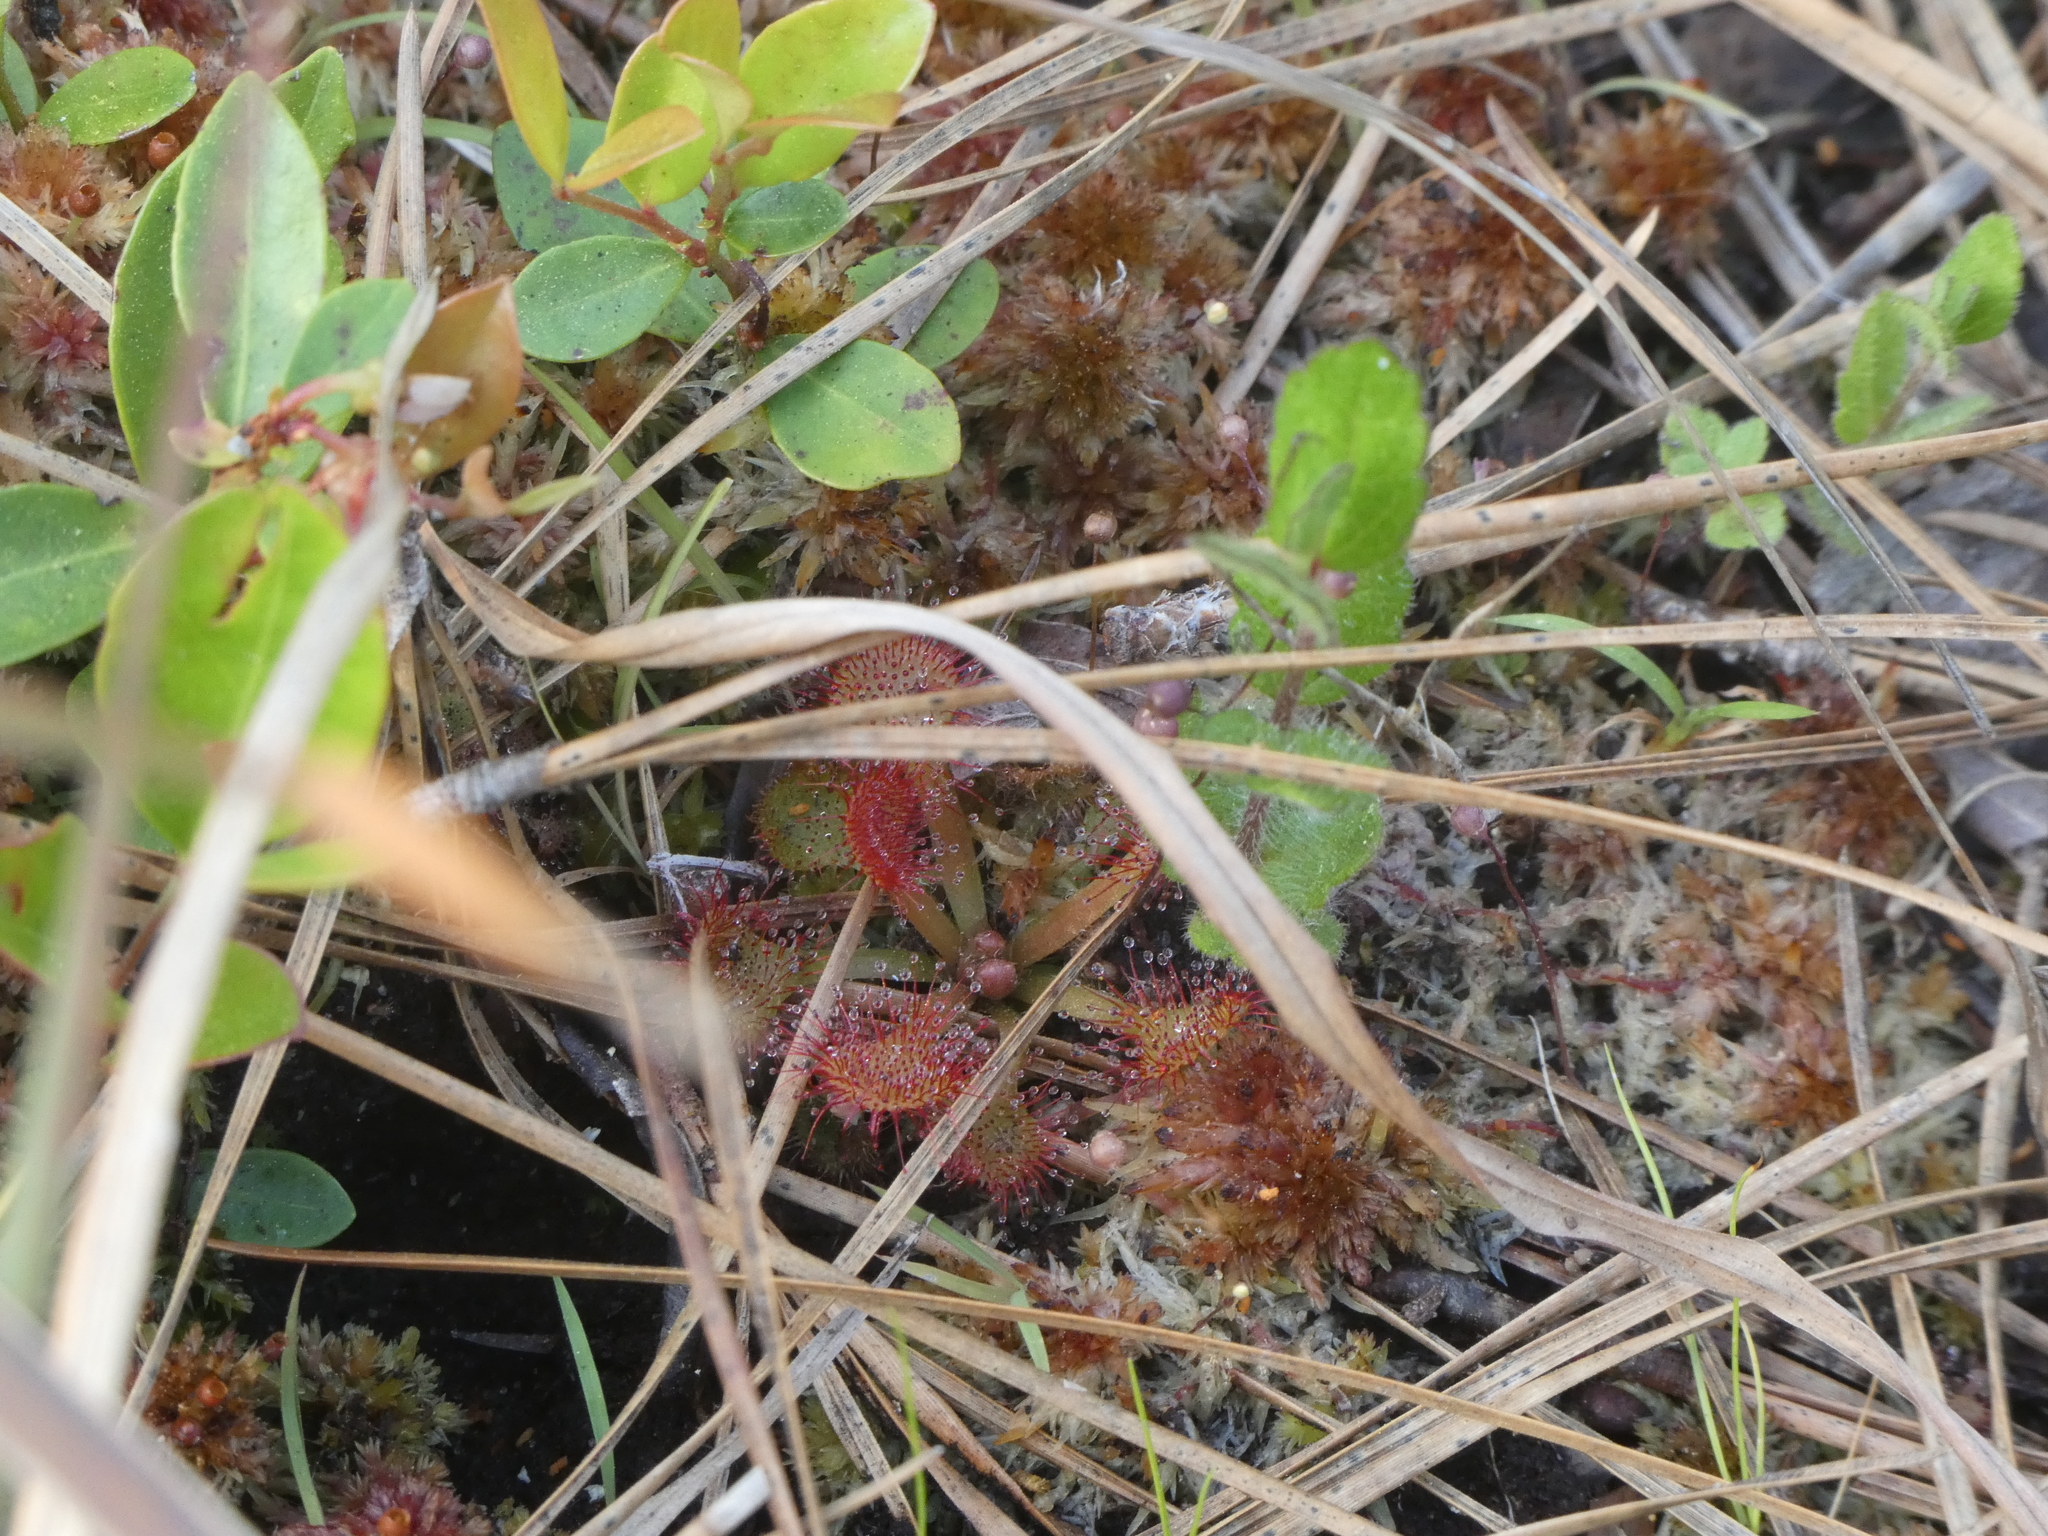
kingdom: Plantae
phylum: Tracheophyta
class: Magnoliopsida
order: Caryophyllales
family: Droseraceae
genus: Drosera
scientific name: Drosera capillaris
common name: Pink sundew
